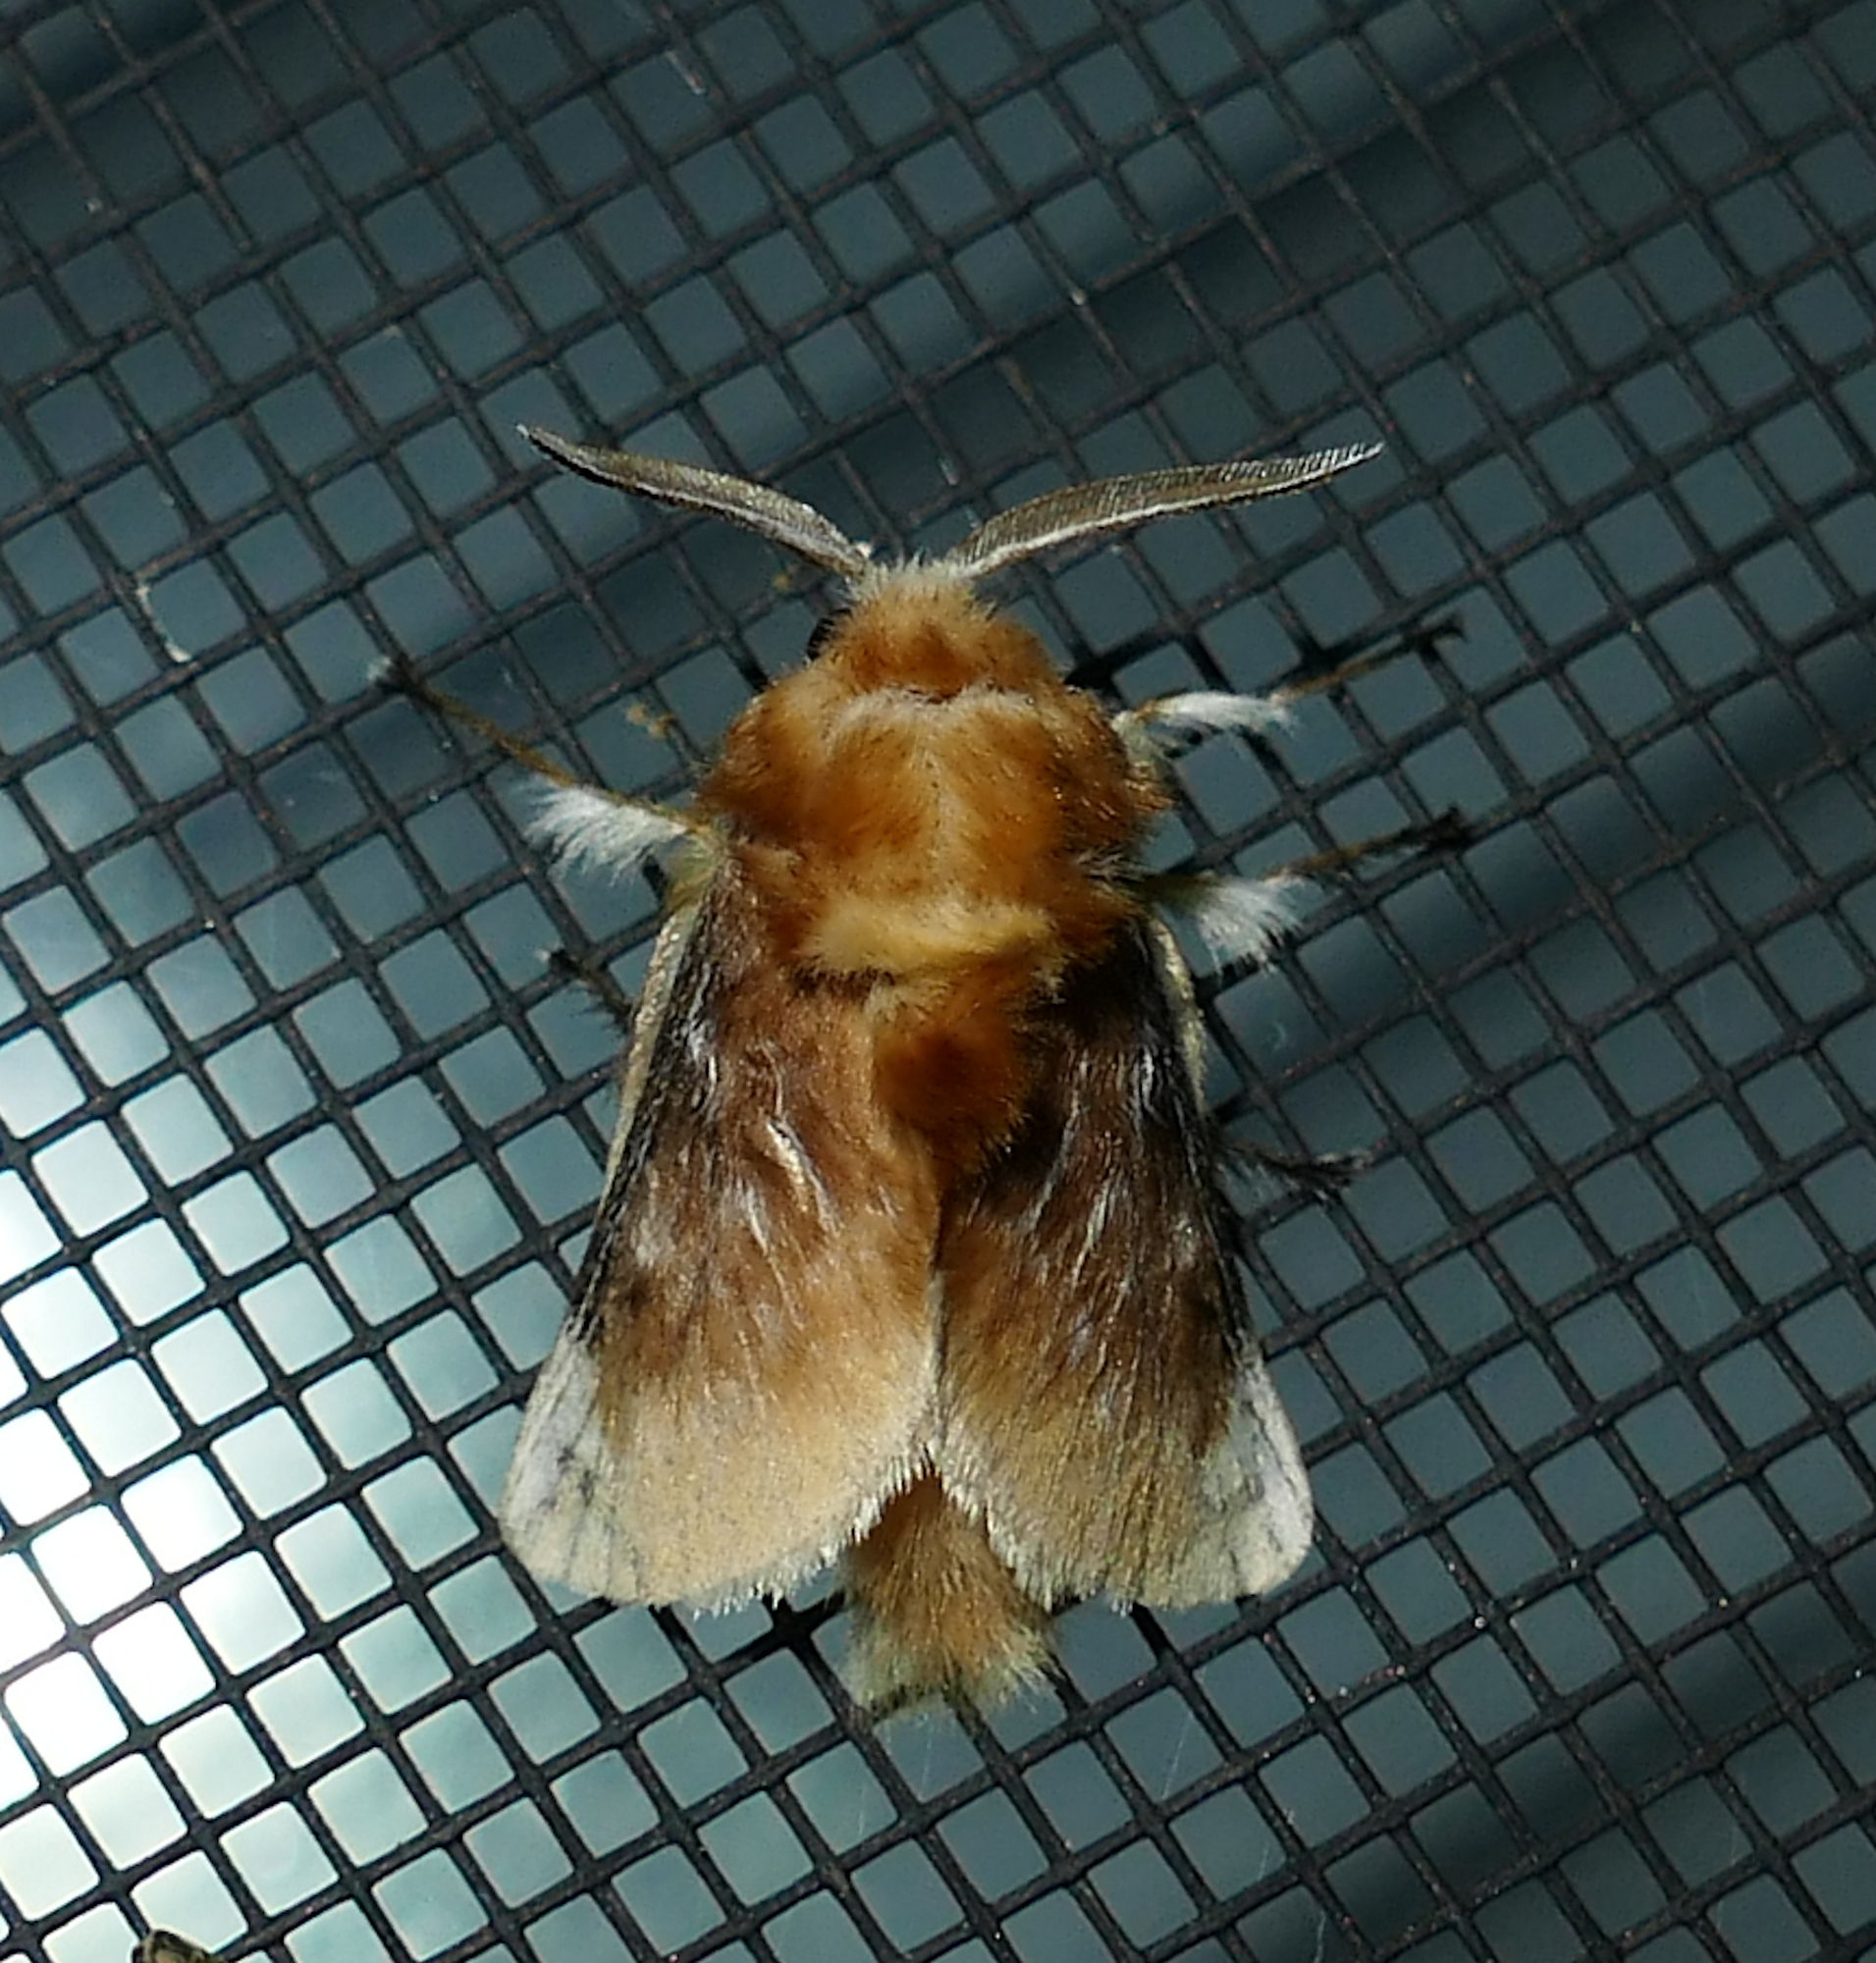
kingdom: Animalia
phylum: Arthropoda
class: Insecta
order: Lepidoptera
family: Megalopygidae
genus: Megalopyge
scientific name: Megalopyge opercularis
